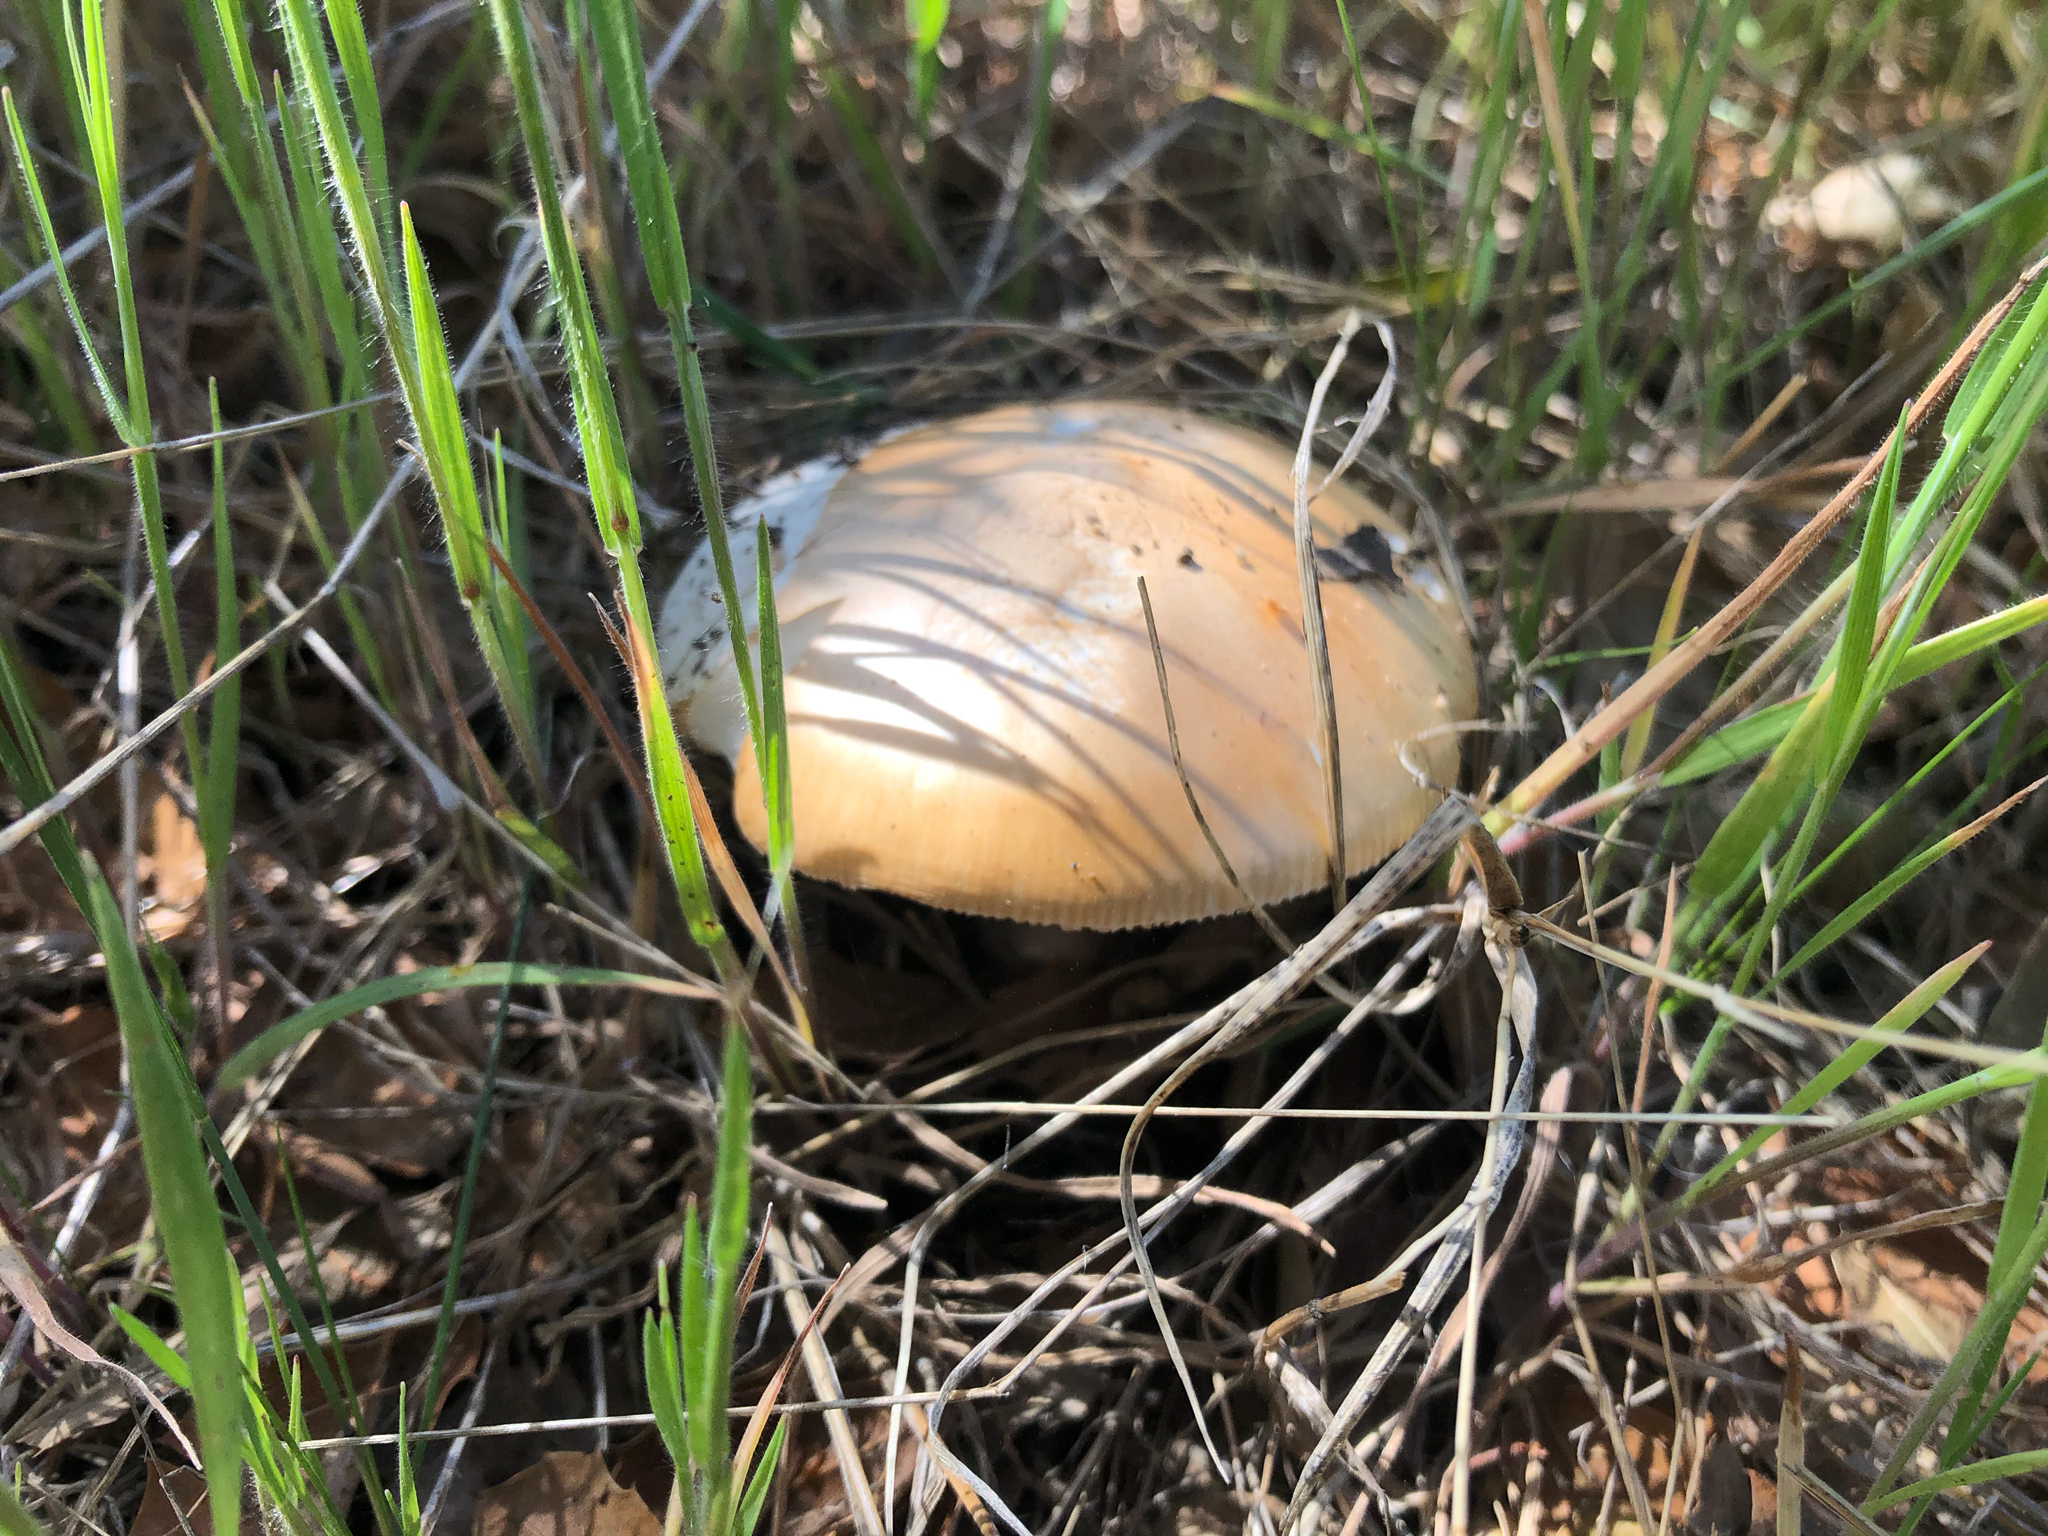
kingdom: Fungi
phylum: Basidiomycota
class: Agaricomycetes
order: Agaricales
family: Amanitaceae
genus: Amanita
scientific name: Amanita velosa
